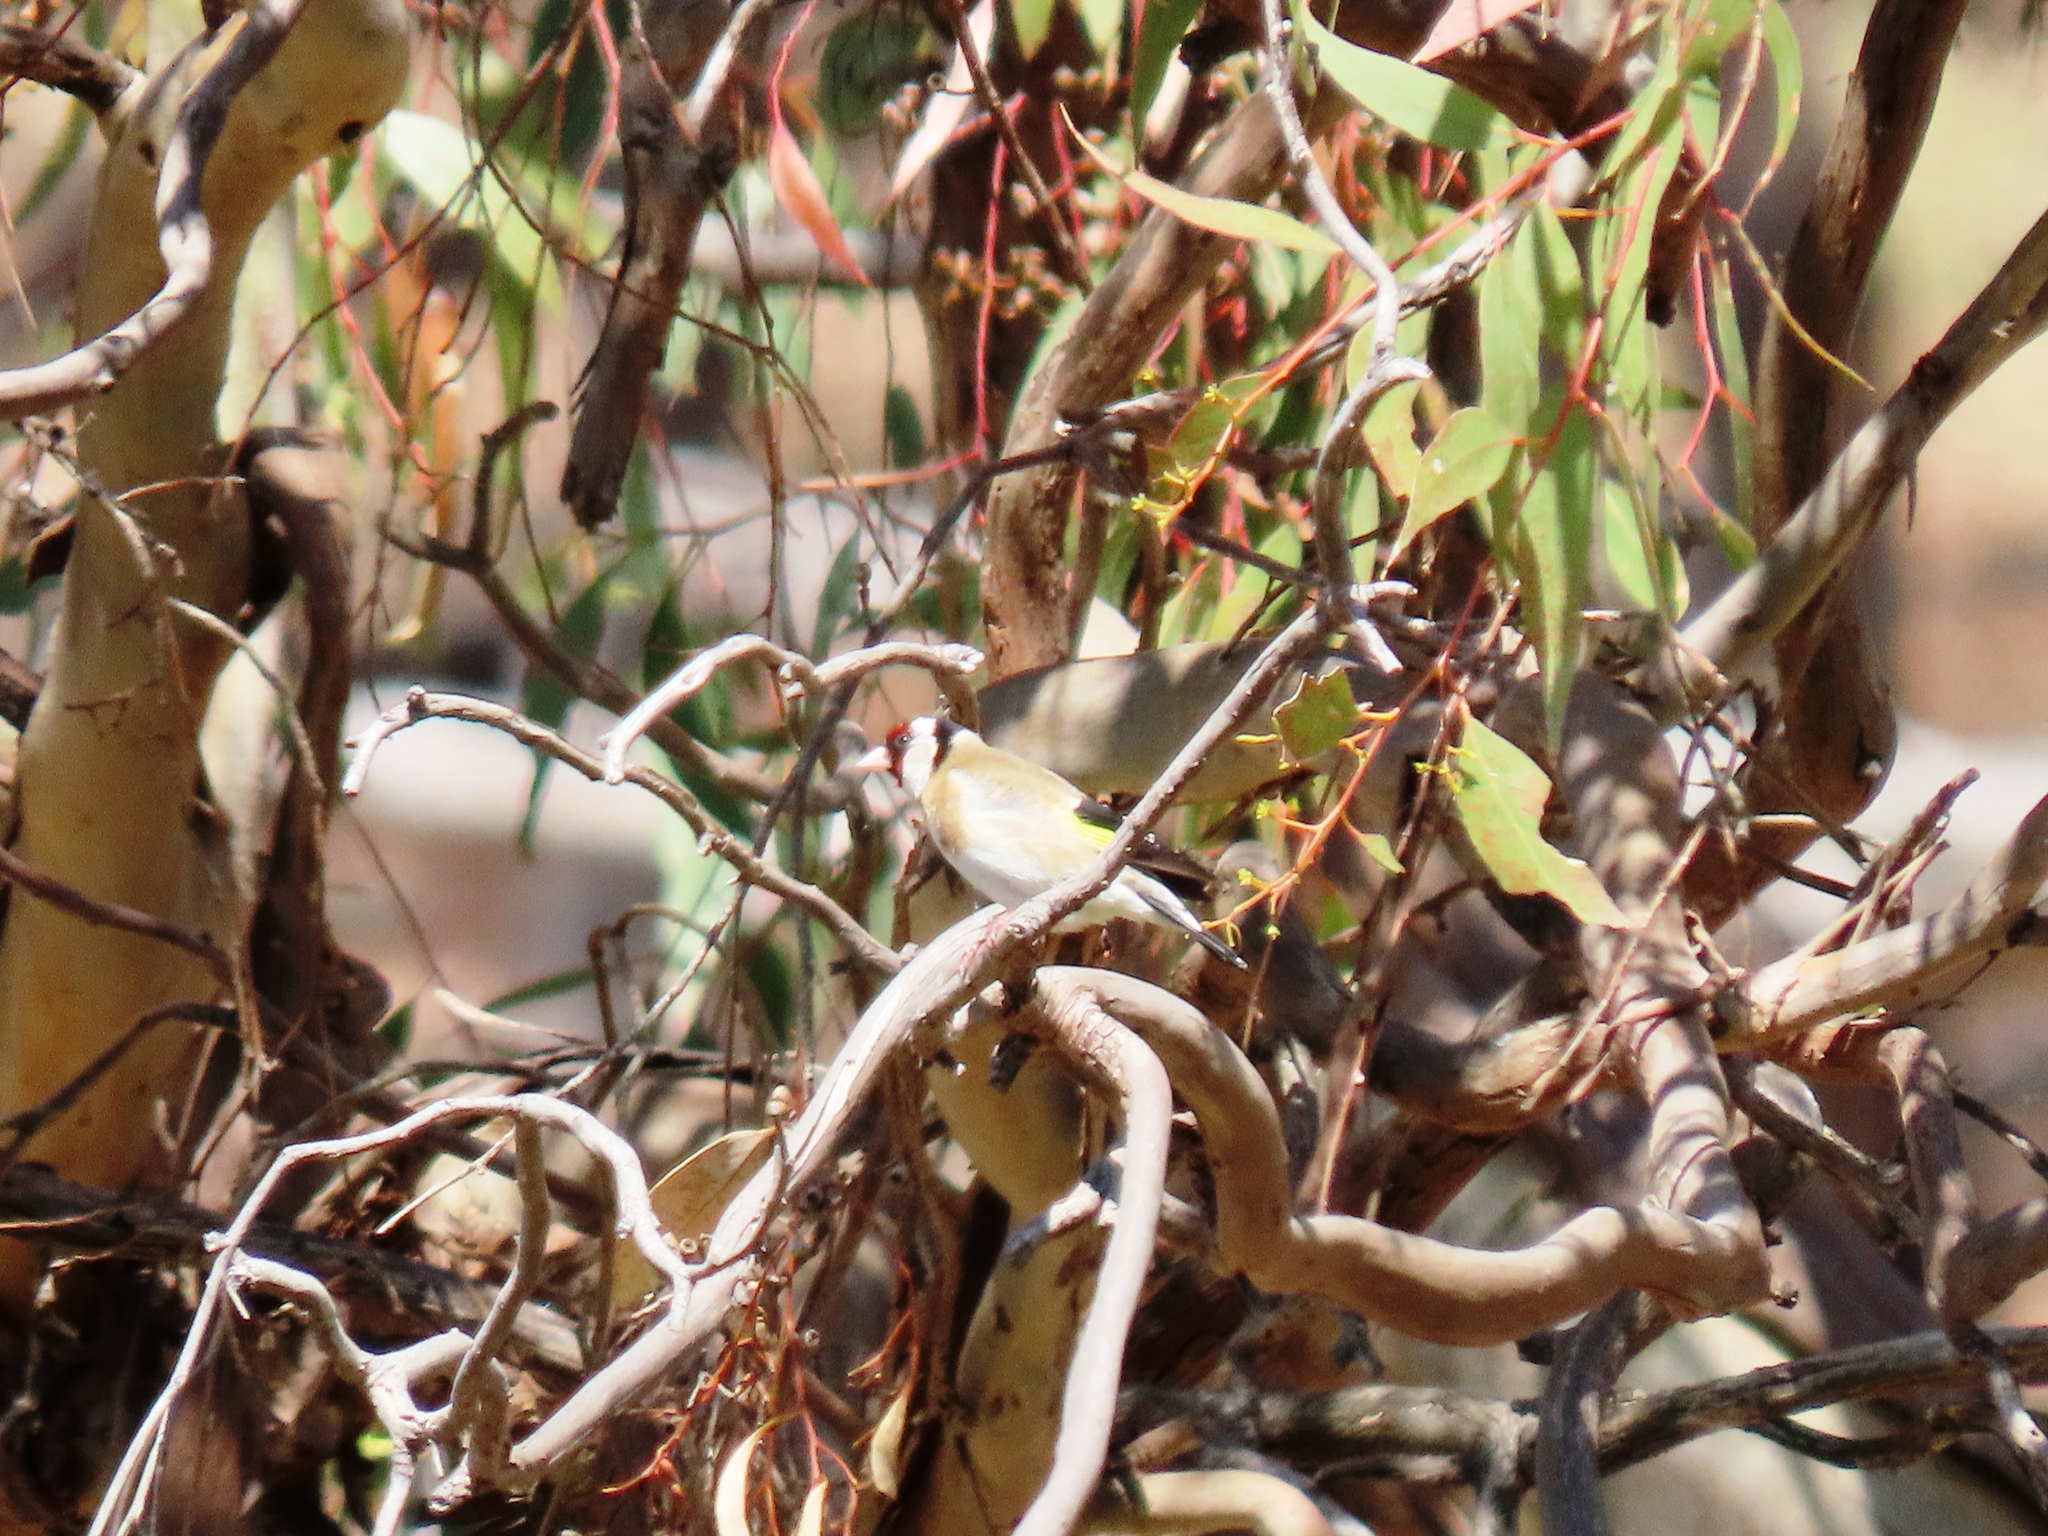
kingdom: Animalia
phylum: Chordata
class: Aves
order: Passeriformes
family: Fringillidae
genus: Carduelis
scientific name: Carduelis carduelis
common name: European goldfinch
